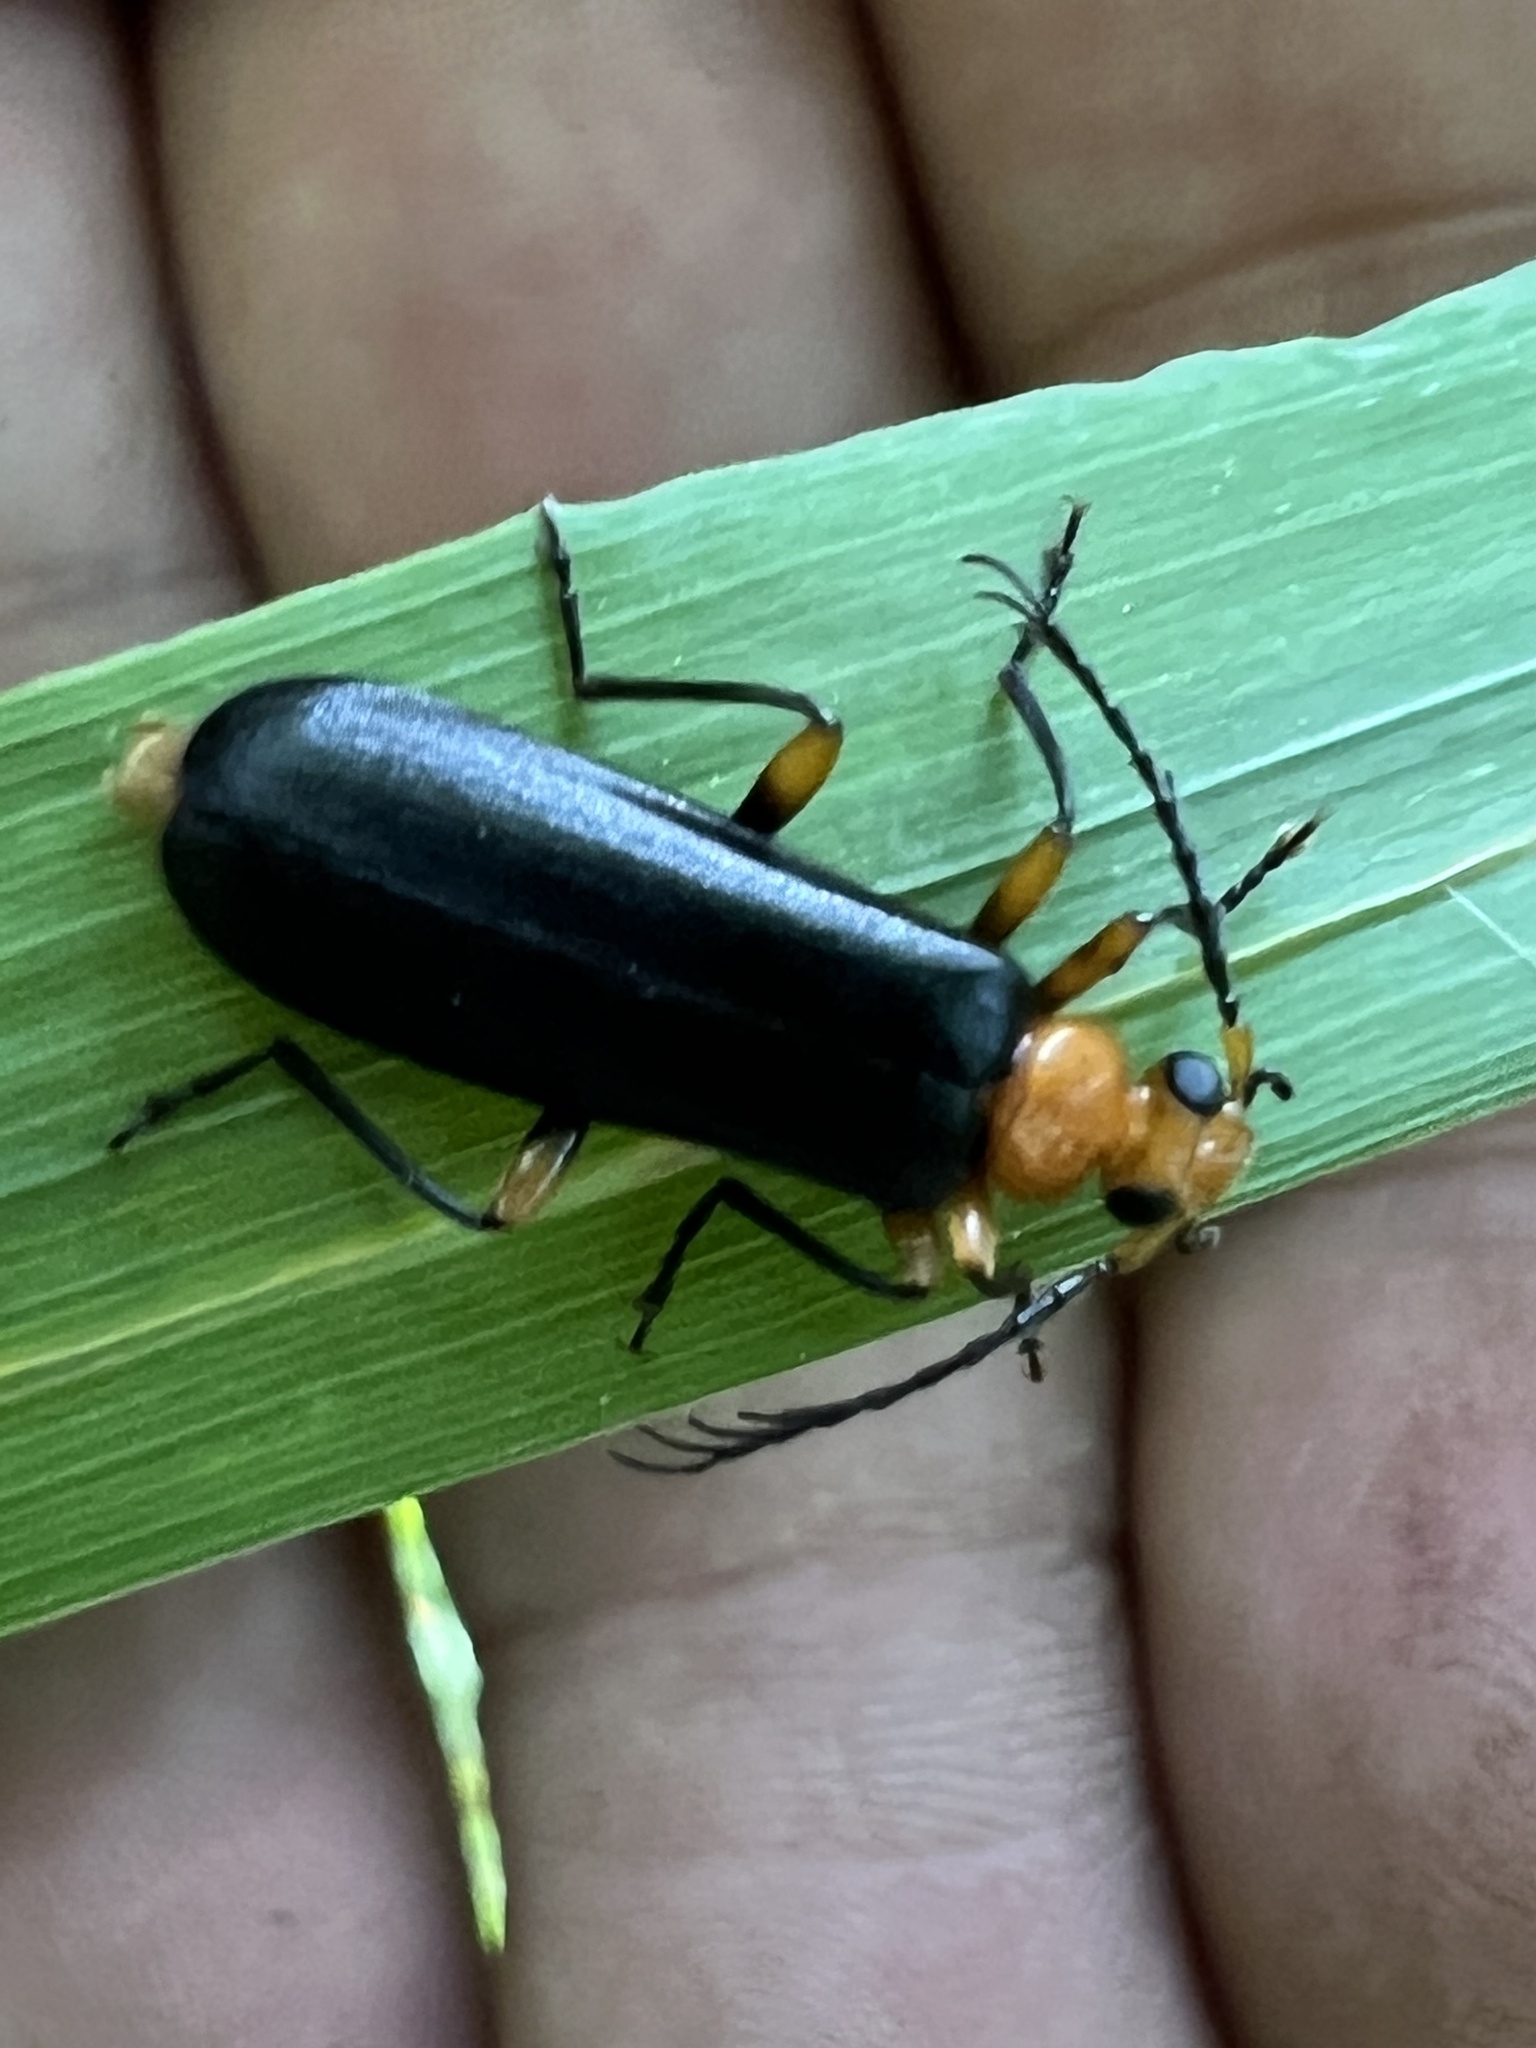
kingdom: Animalia
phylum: Arthropoda
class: Insecta
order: Coleoptera
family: Pyrochroidae
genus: Neopyrochroa
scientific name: Neopyrochroa femoralis
